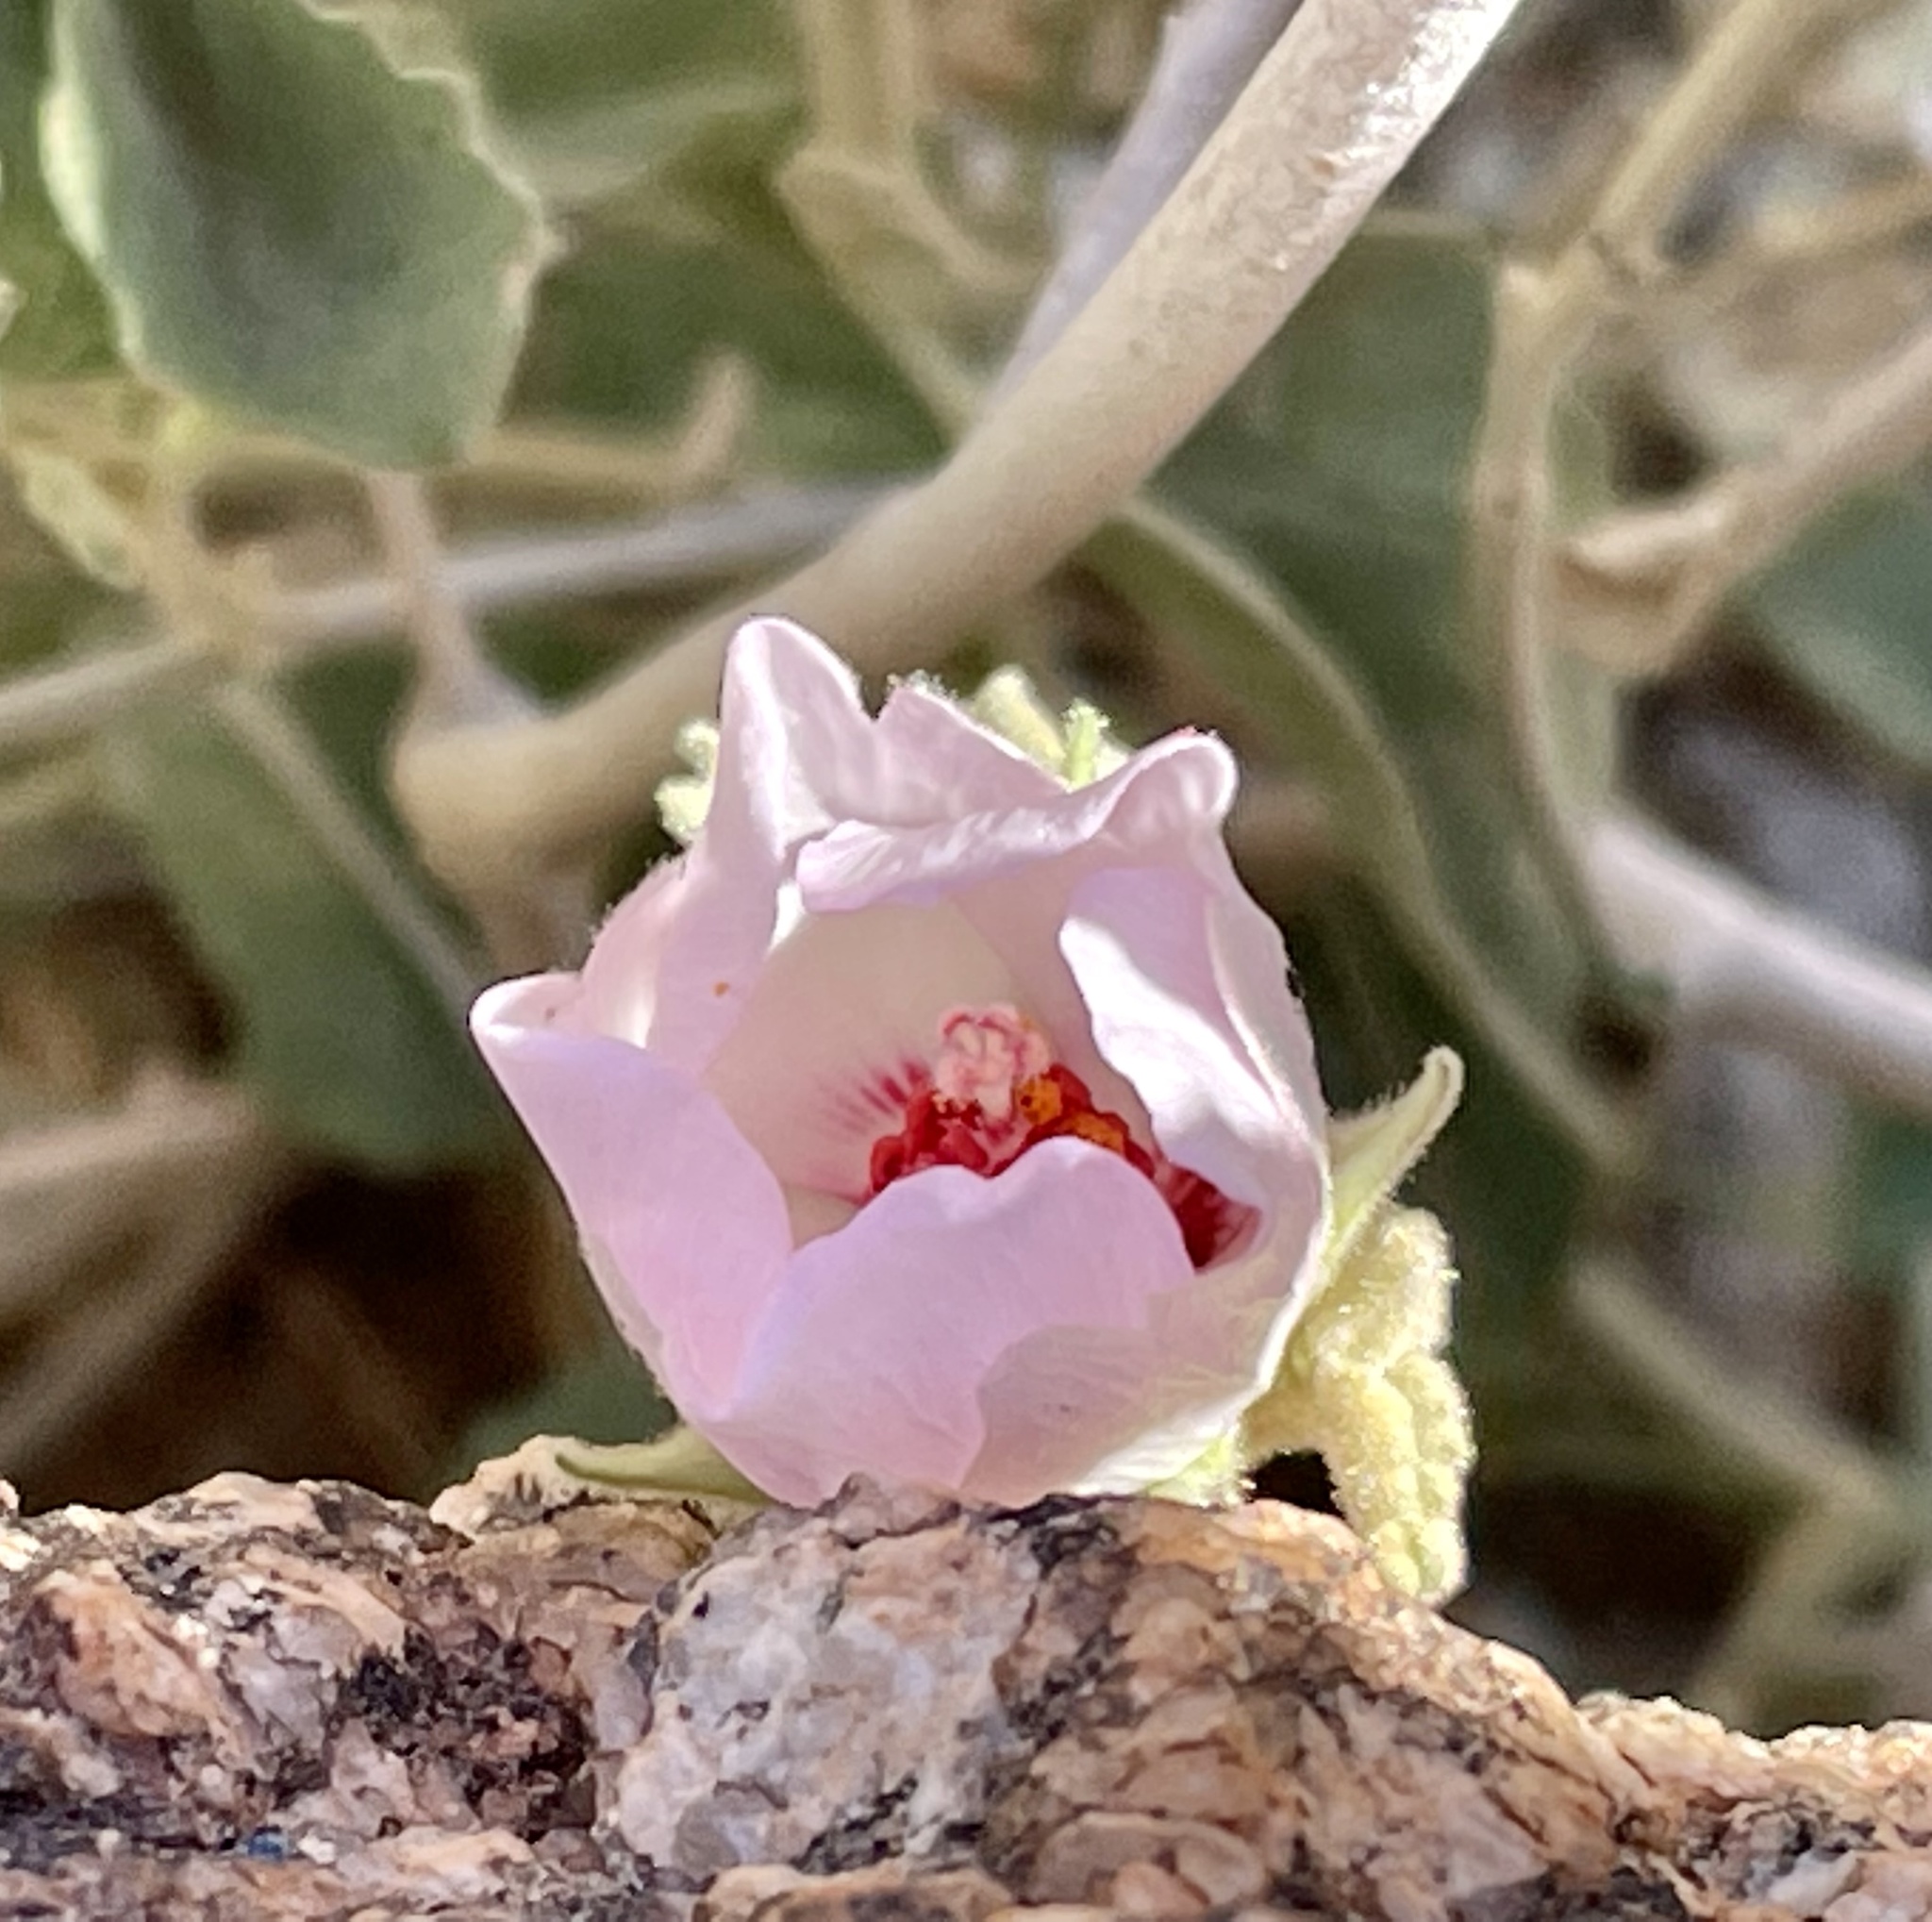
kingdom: Plantae
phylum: Tracheophyta
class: Magnoliopsida
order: Malvales
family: Malvaceae
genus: Hibiscus
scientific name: Hibiscus denudatus
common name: Paleface
